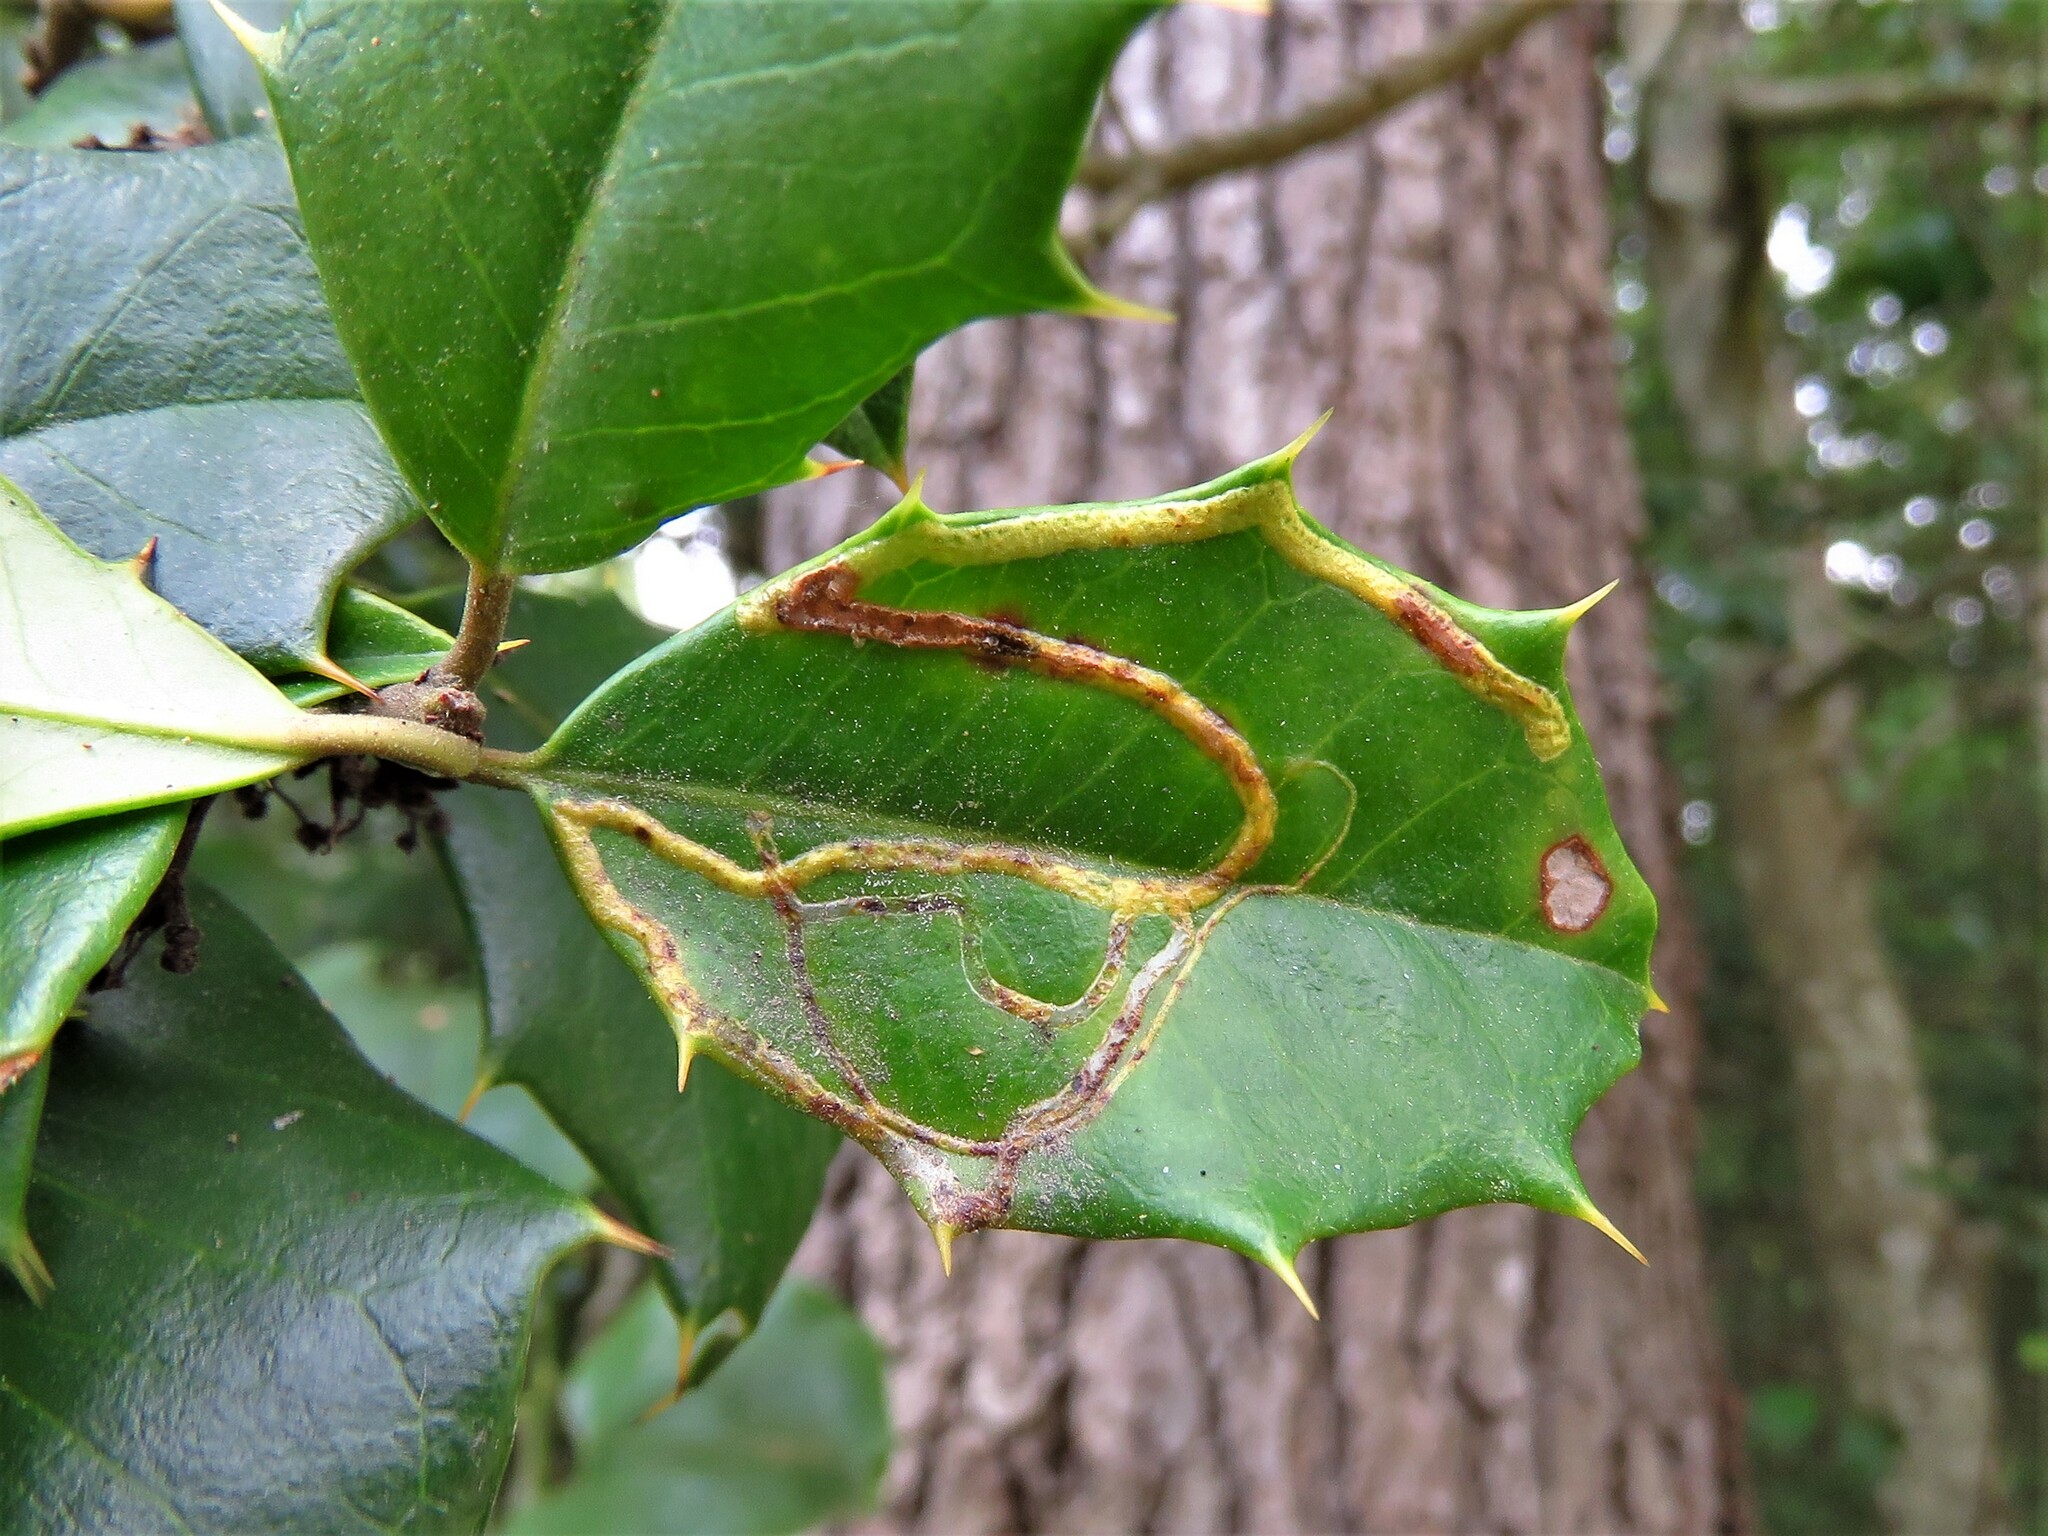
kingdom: Animalia
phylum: Arthropoda
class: Insecta
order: Diptera
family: Agromyzidae
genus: Phytomyza
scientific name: Phytomyza opacae
